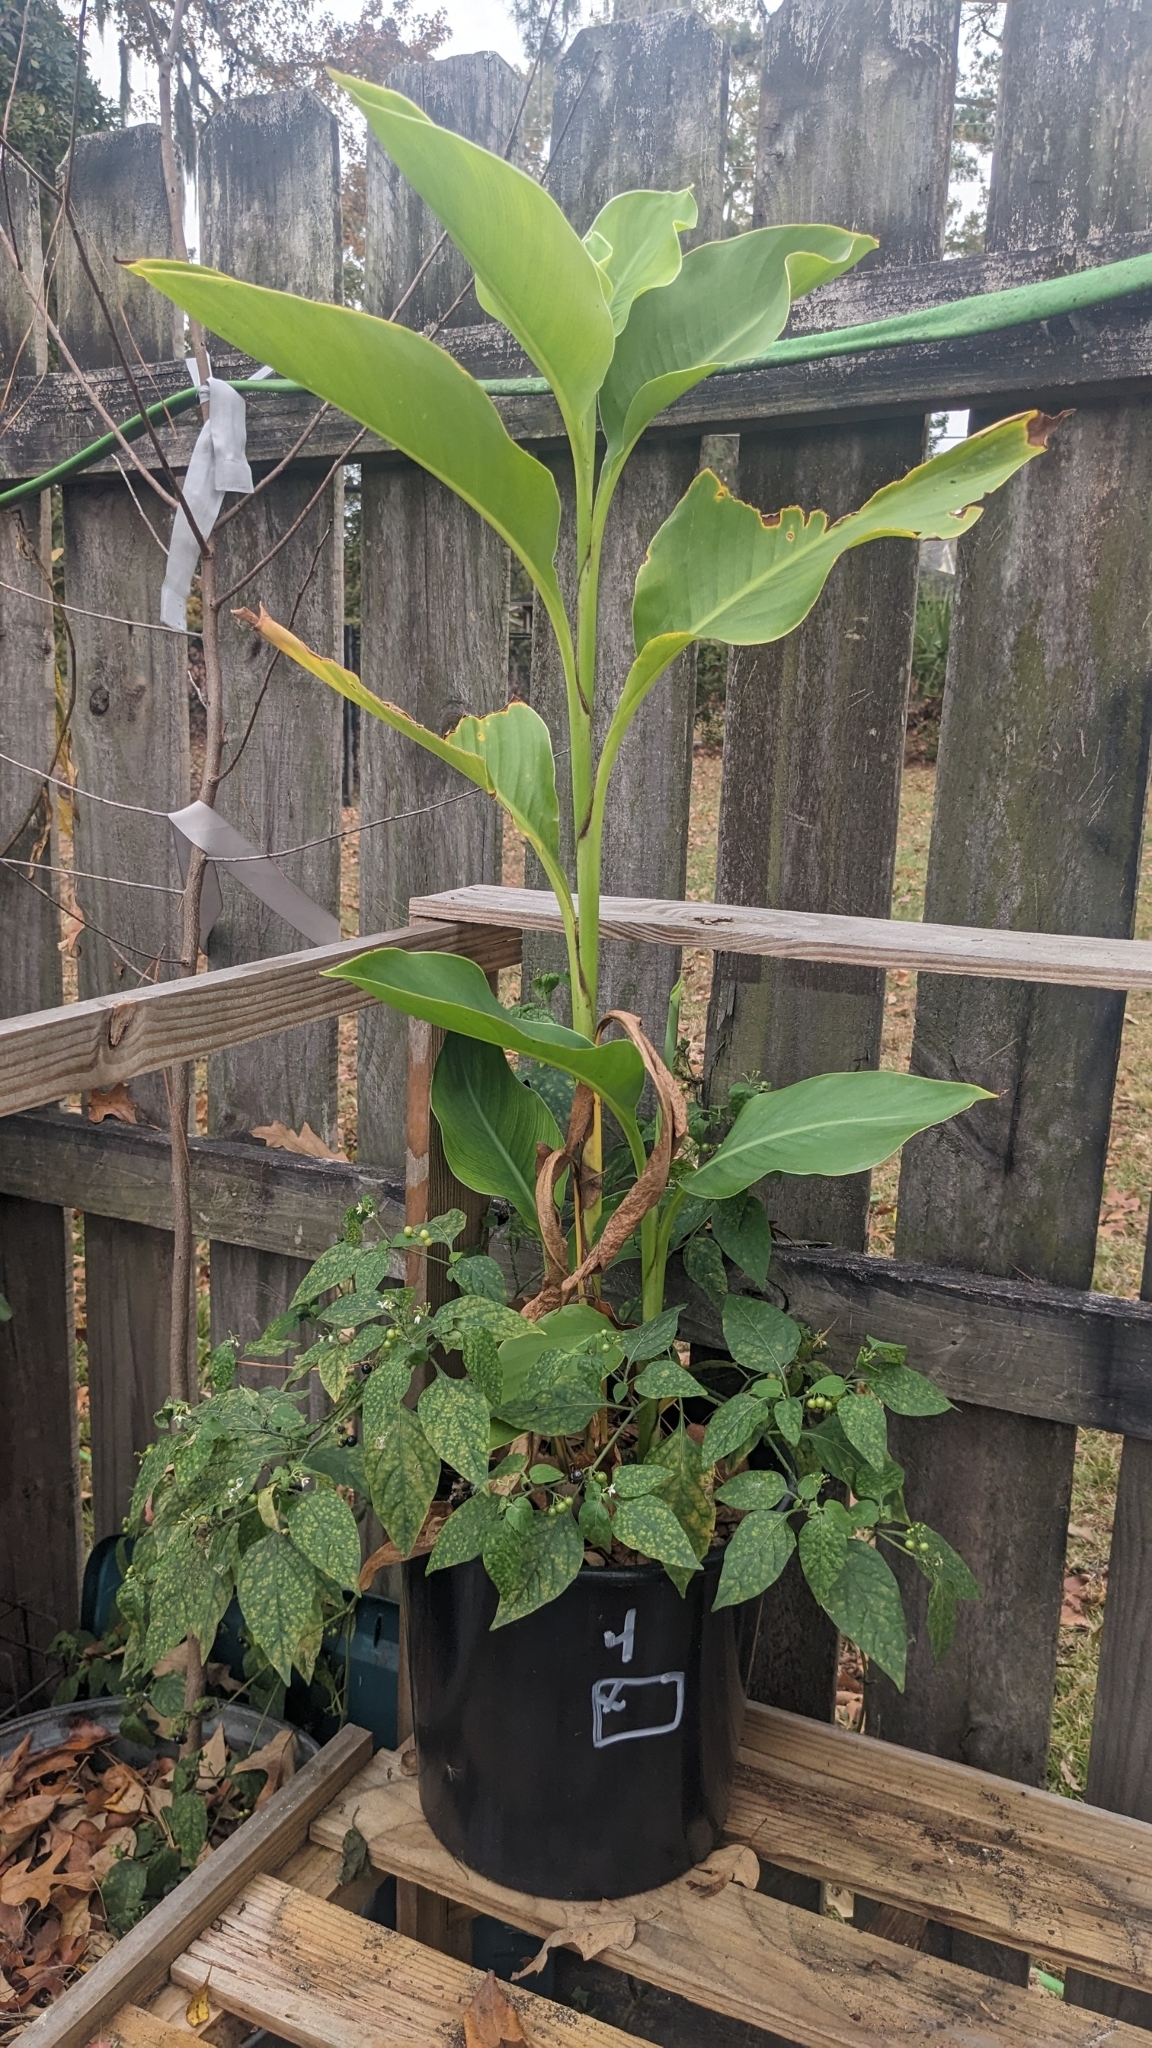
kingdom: Plantae
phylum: Tracheophyta
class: Magnoliopsida
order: Solanales
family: Solanaceae
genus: Solanum
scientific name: Solanum americanum
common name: American black nightshade
